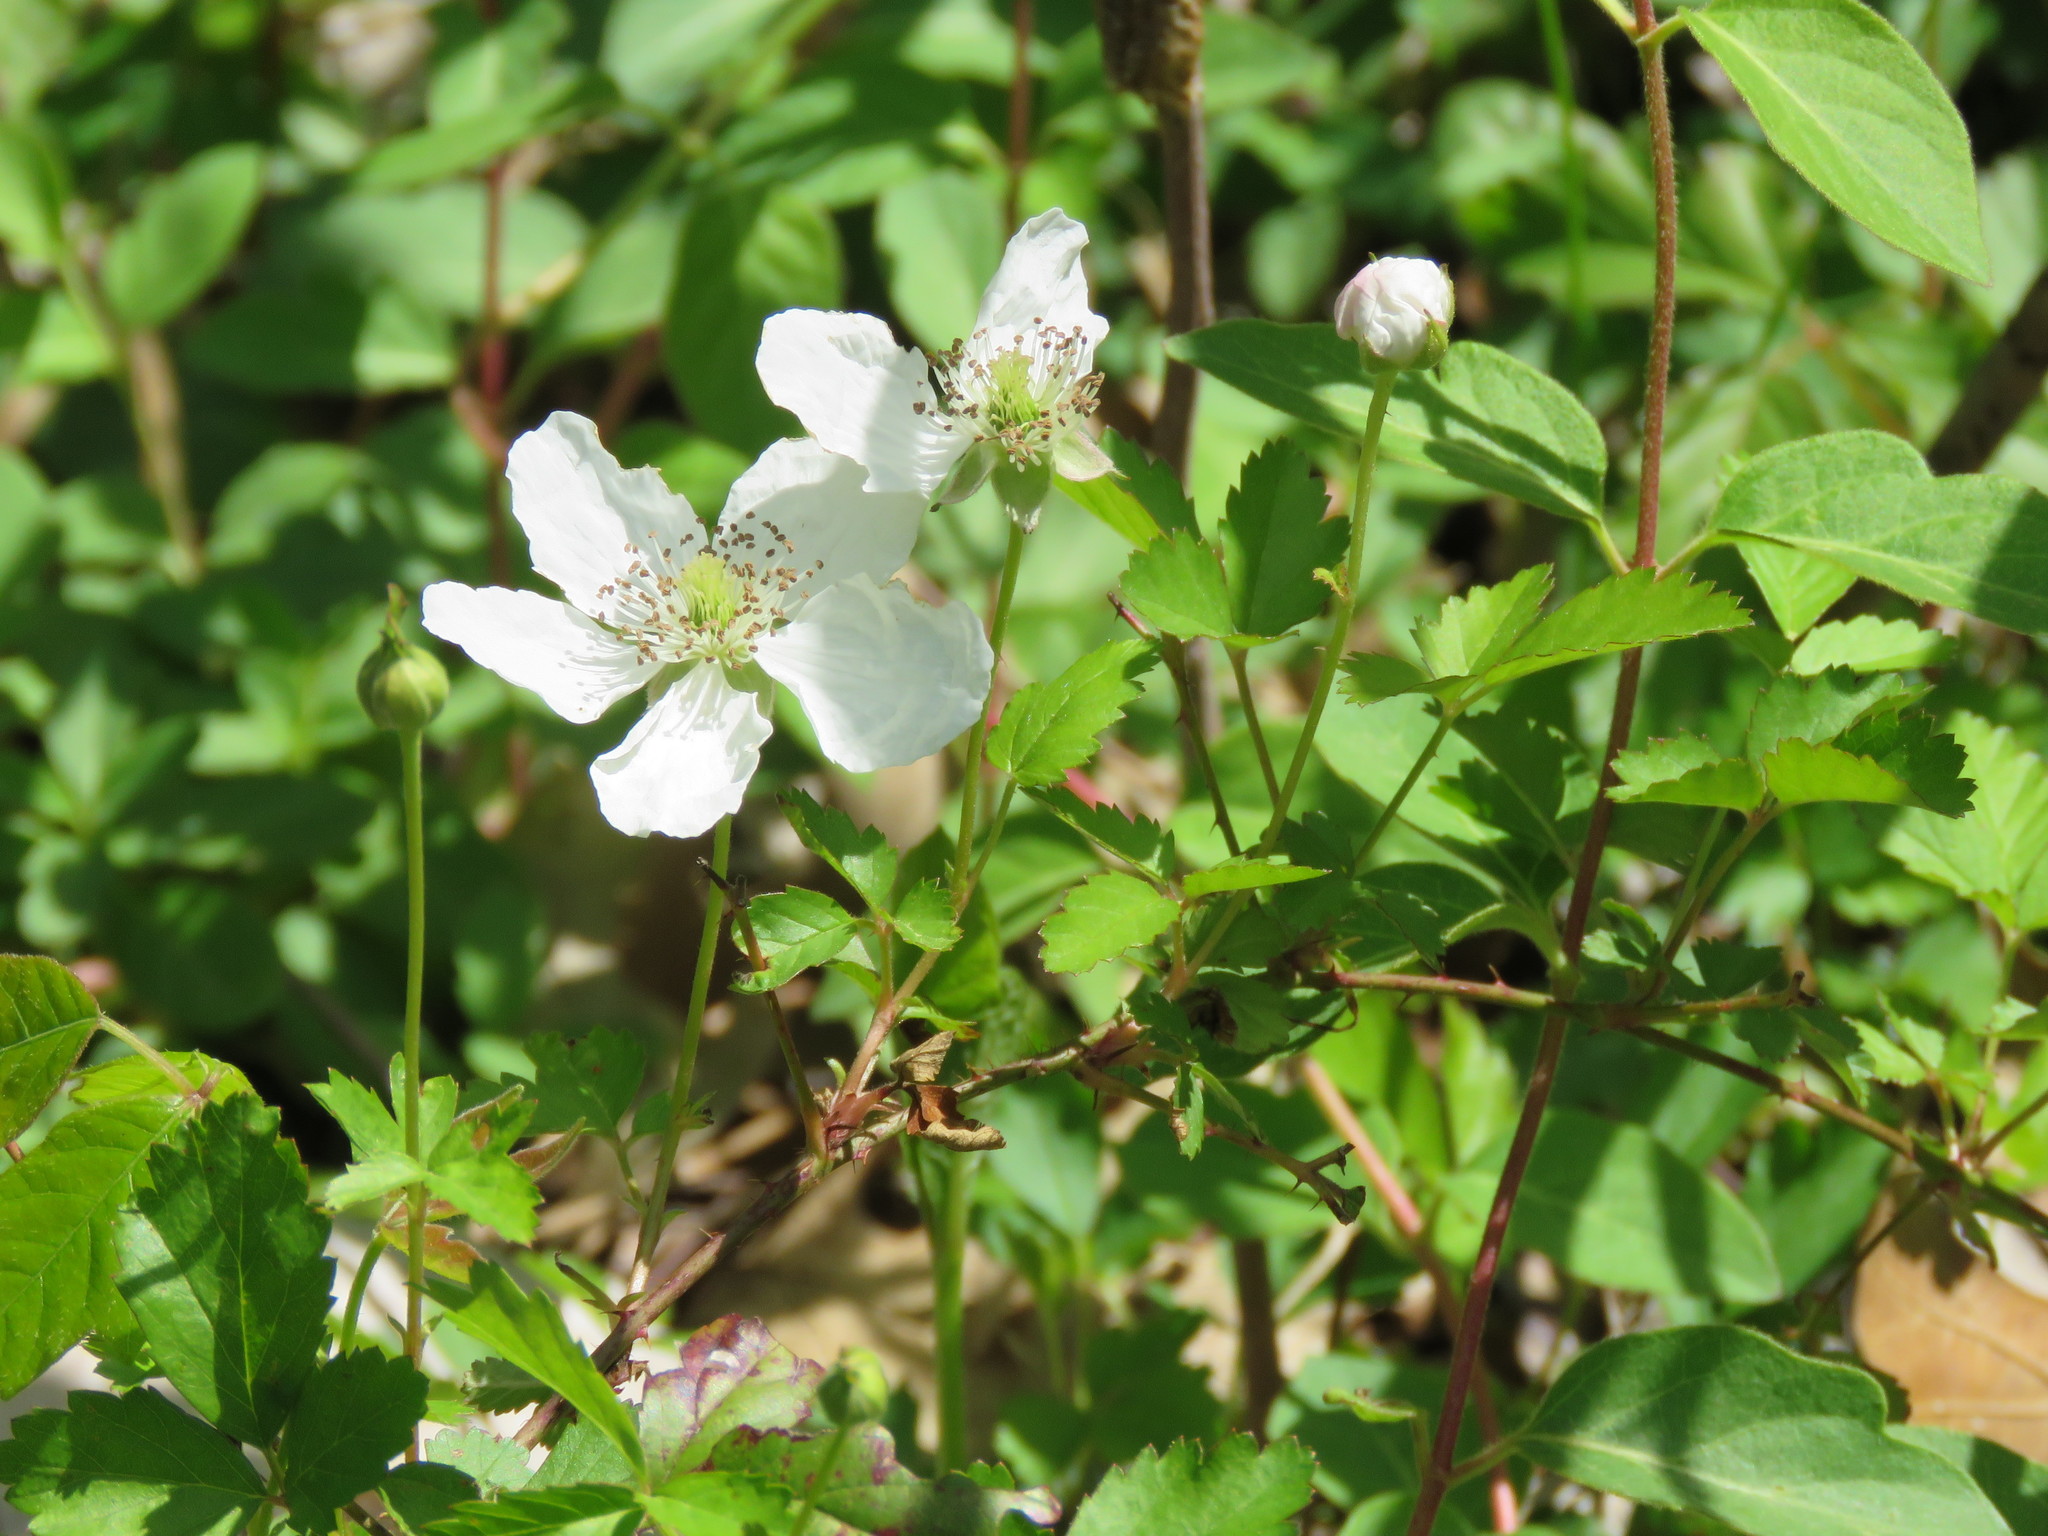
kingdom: Plantae
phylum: Tracheophyta
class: Magnoliopsida
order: Rosales
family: Rosaceae
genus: Rubus
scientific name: Rubus trivialis
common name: Southern dewberry
